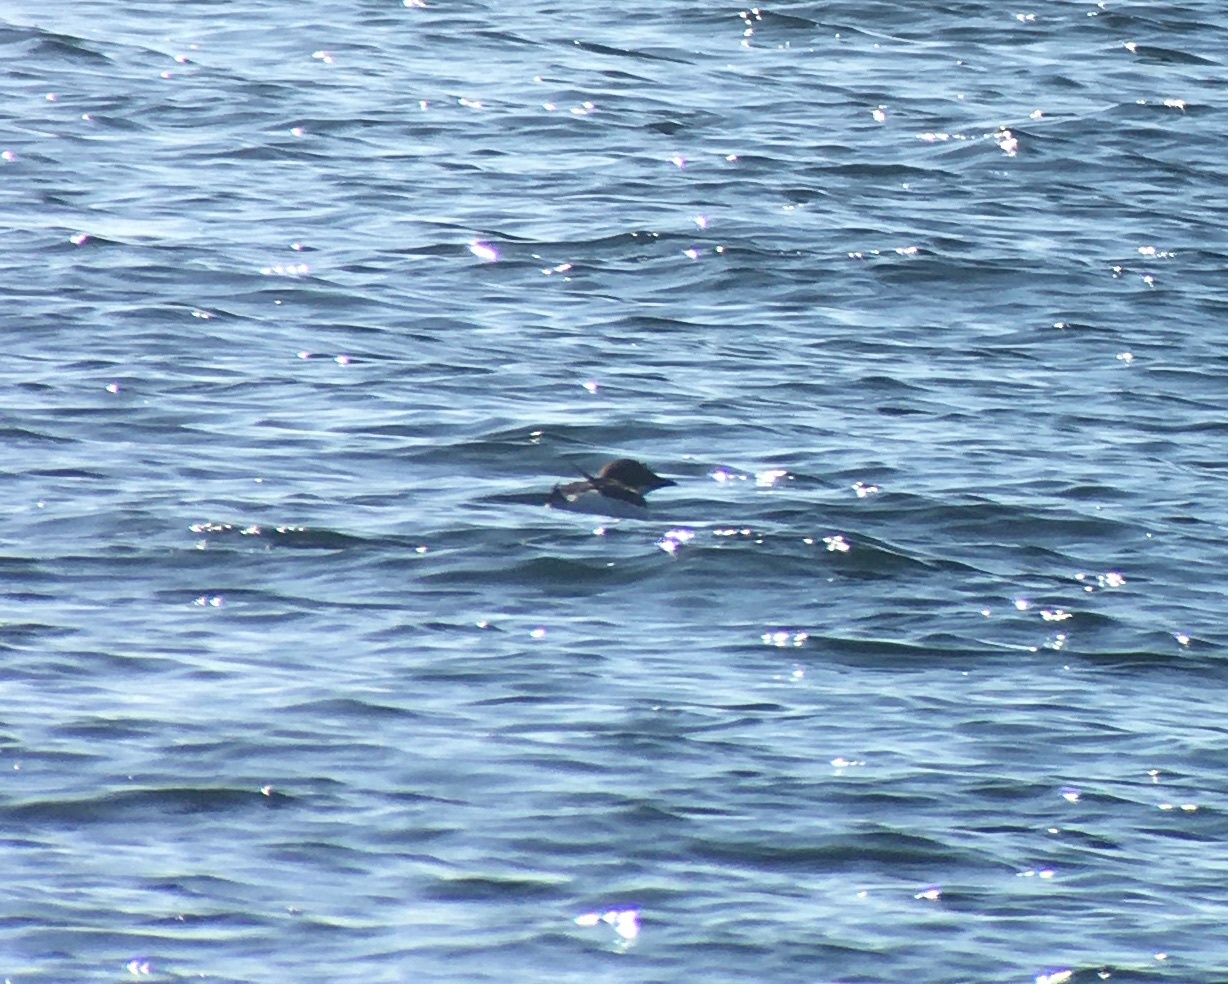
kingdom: Animalia
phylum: Chordata
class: Aves
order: Charadriiformes
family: Alcidae
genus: Uria
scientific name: Uria lomvia
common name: Thick-billed murre
